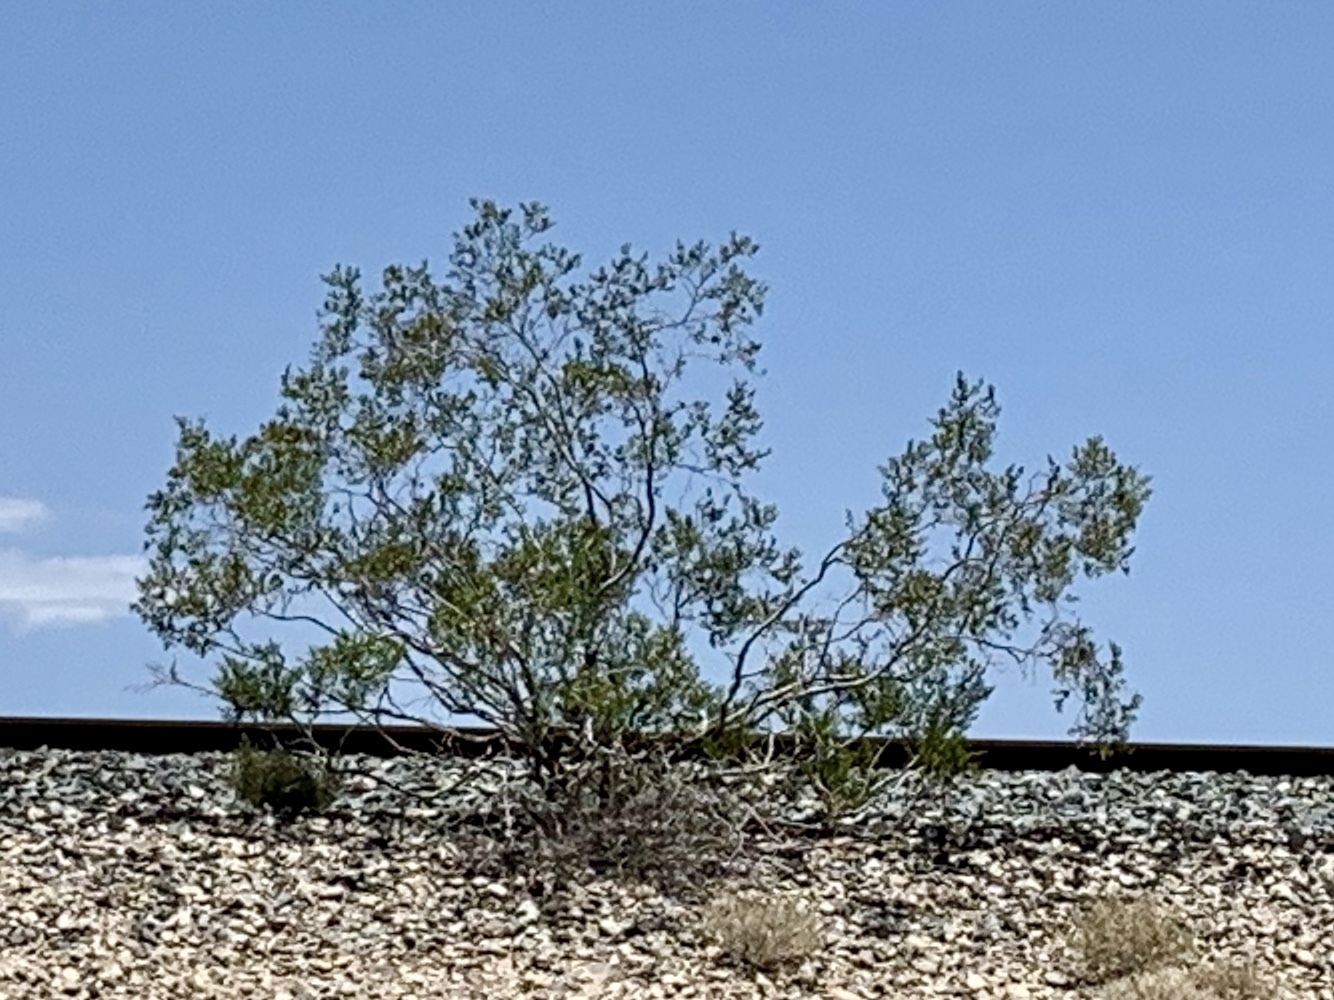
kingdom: Plantae
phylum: Tracheophyta
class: Magnoliopsida
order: Zygophyllales
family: Zygophyllaceae
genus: Larrea
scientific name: Larrea tridentata
